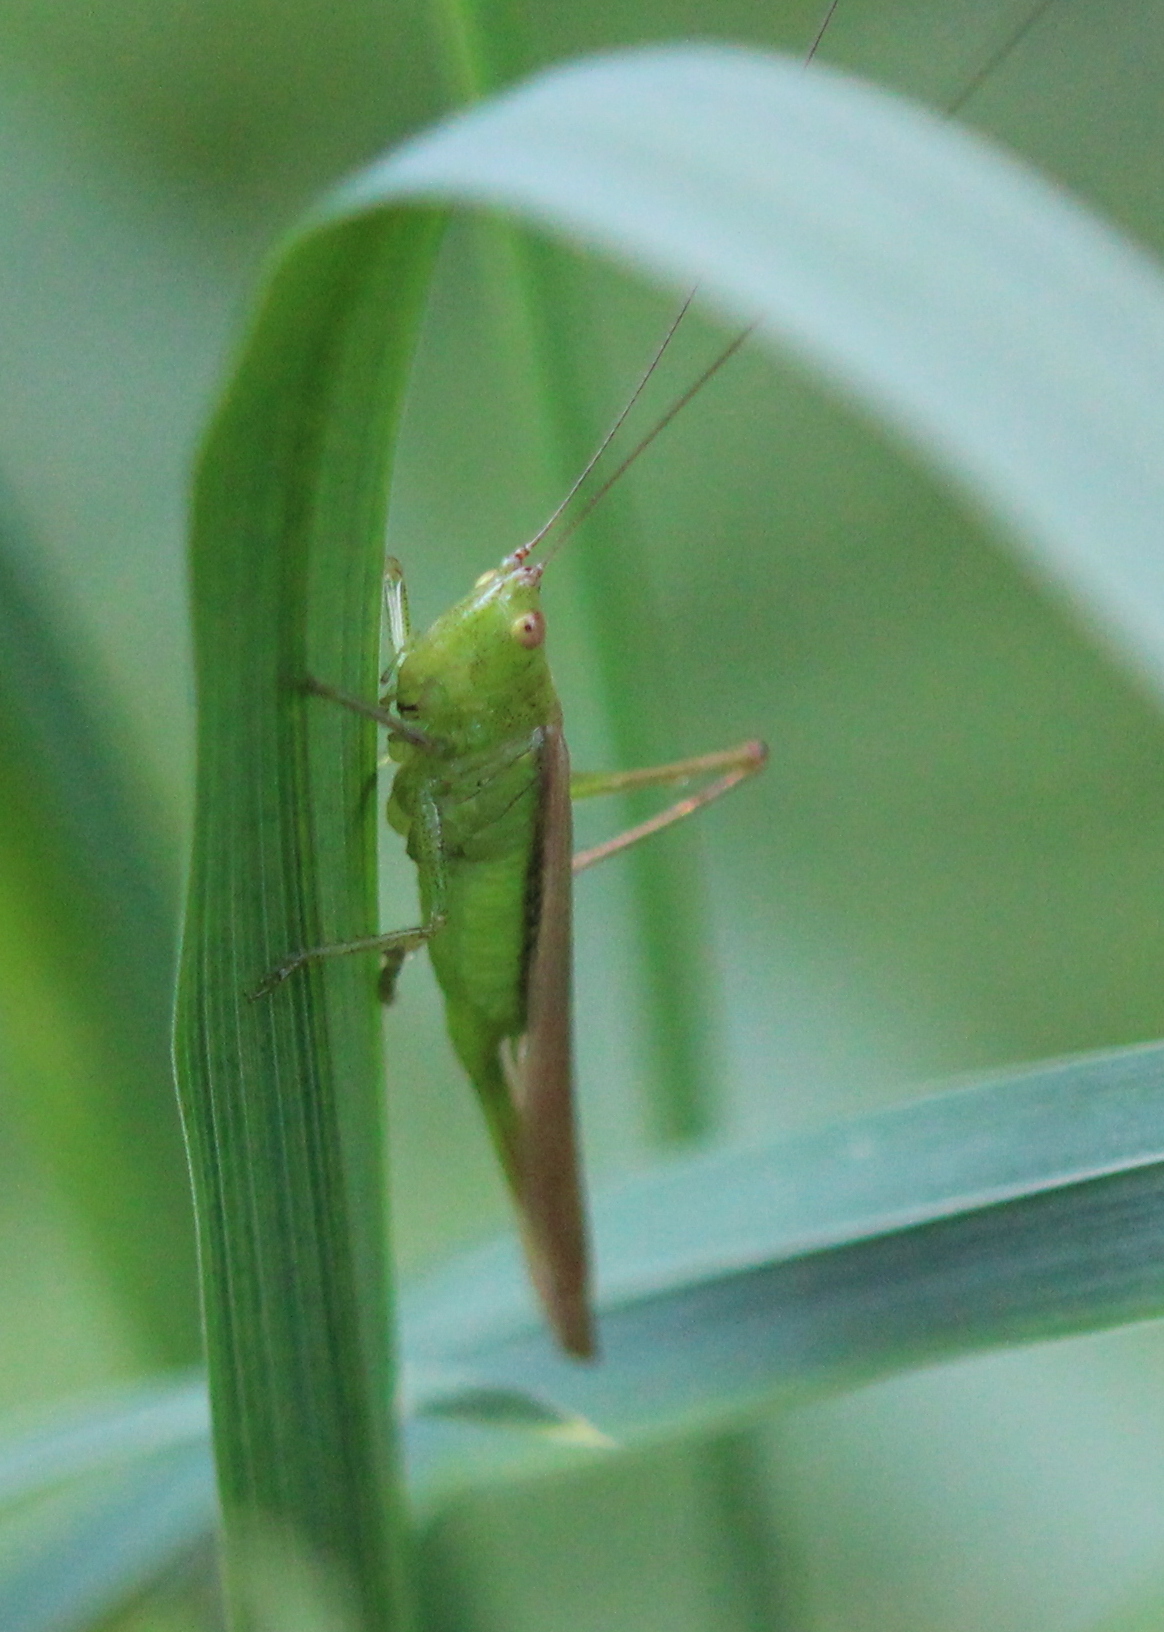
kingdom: Animalia
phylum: Arthropoda
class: Insecta
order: Orthoptera
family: Tettigoniidae
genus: Conocephalus
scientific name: Conocephalus fasciatus
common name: Slender meadow katydid
